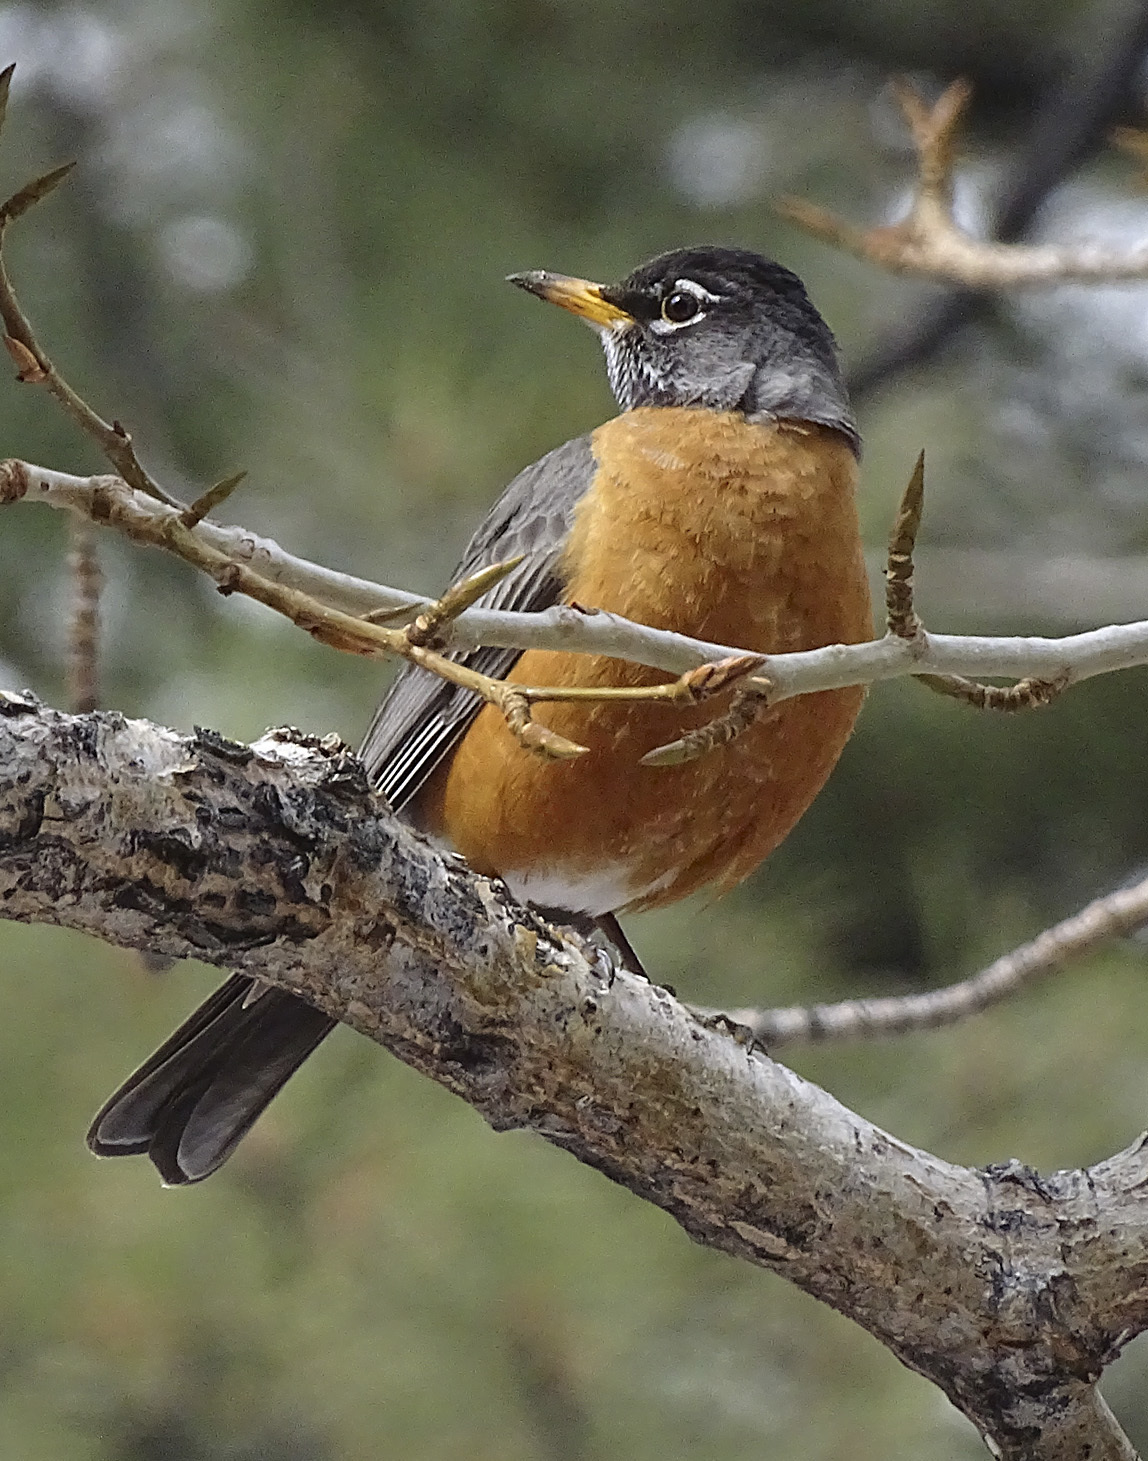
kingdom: Animalia
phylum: Chordata
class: Aves
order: Passeriformes
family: Turdidae
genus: Turdus
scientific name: Turdus migratorius
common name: American robin
